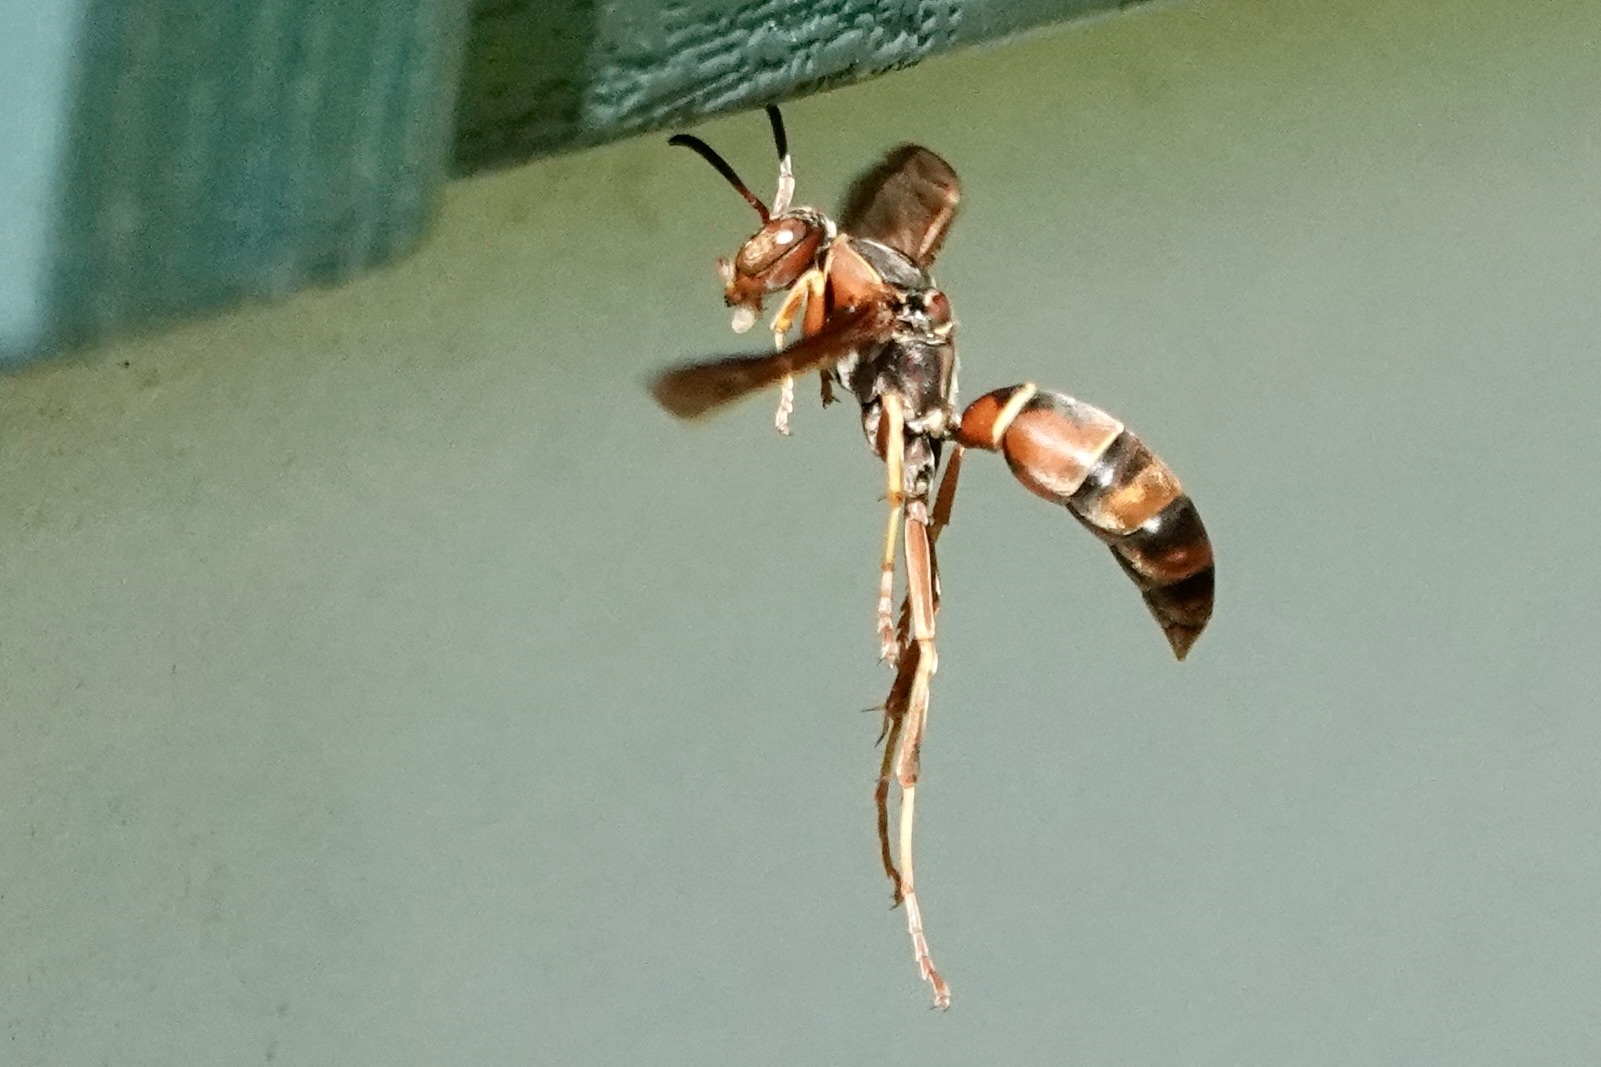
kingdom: Animalia
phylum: Arthropoda
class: Insecta
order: Hymenoptera
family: Eumenidae
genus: Polistes
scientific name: Polistes fuscatus
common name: Dark paper wasp
